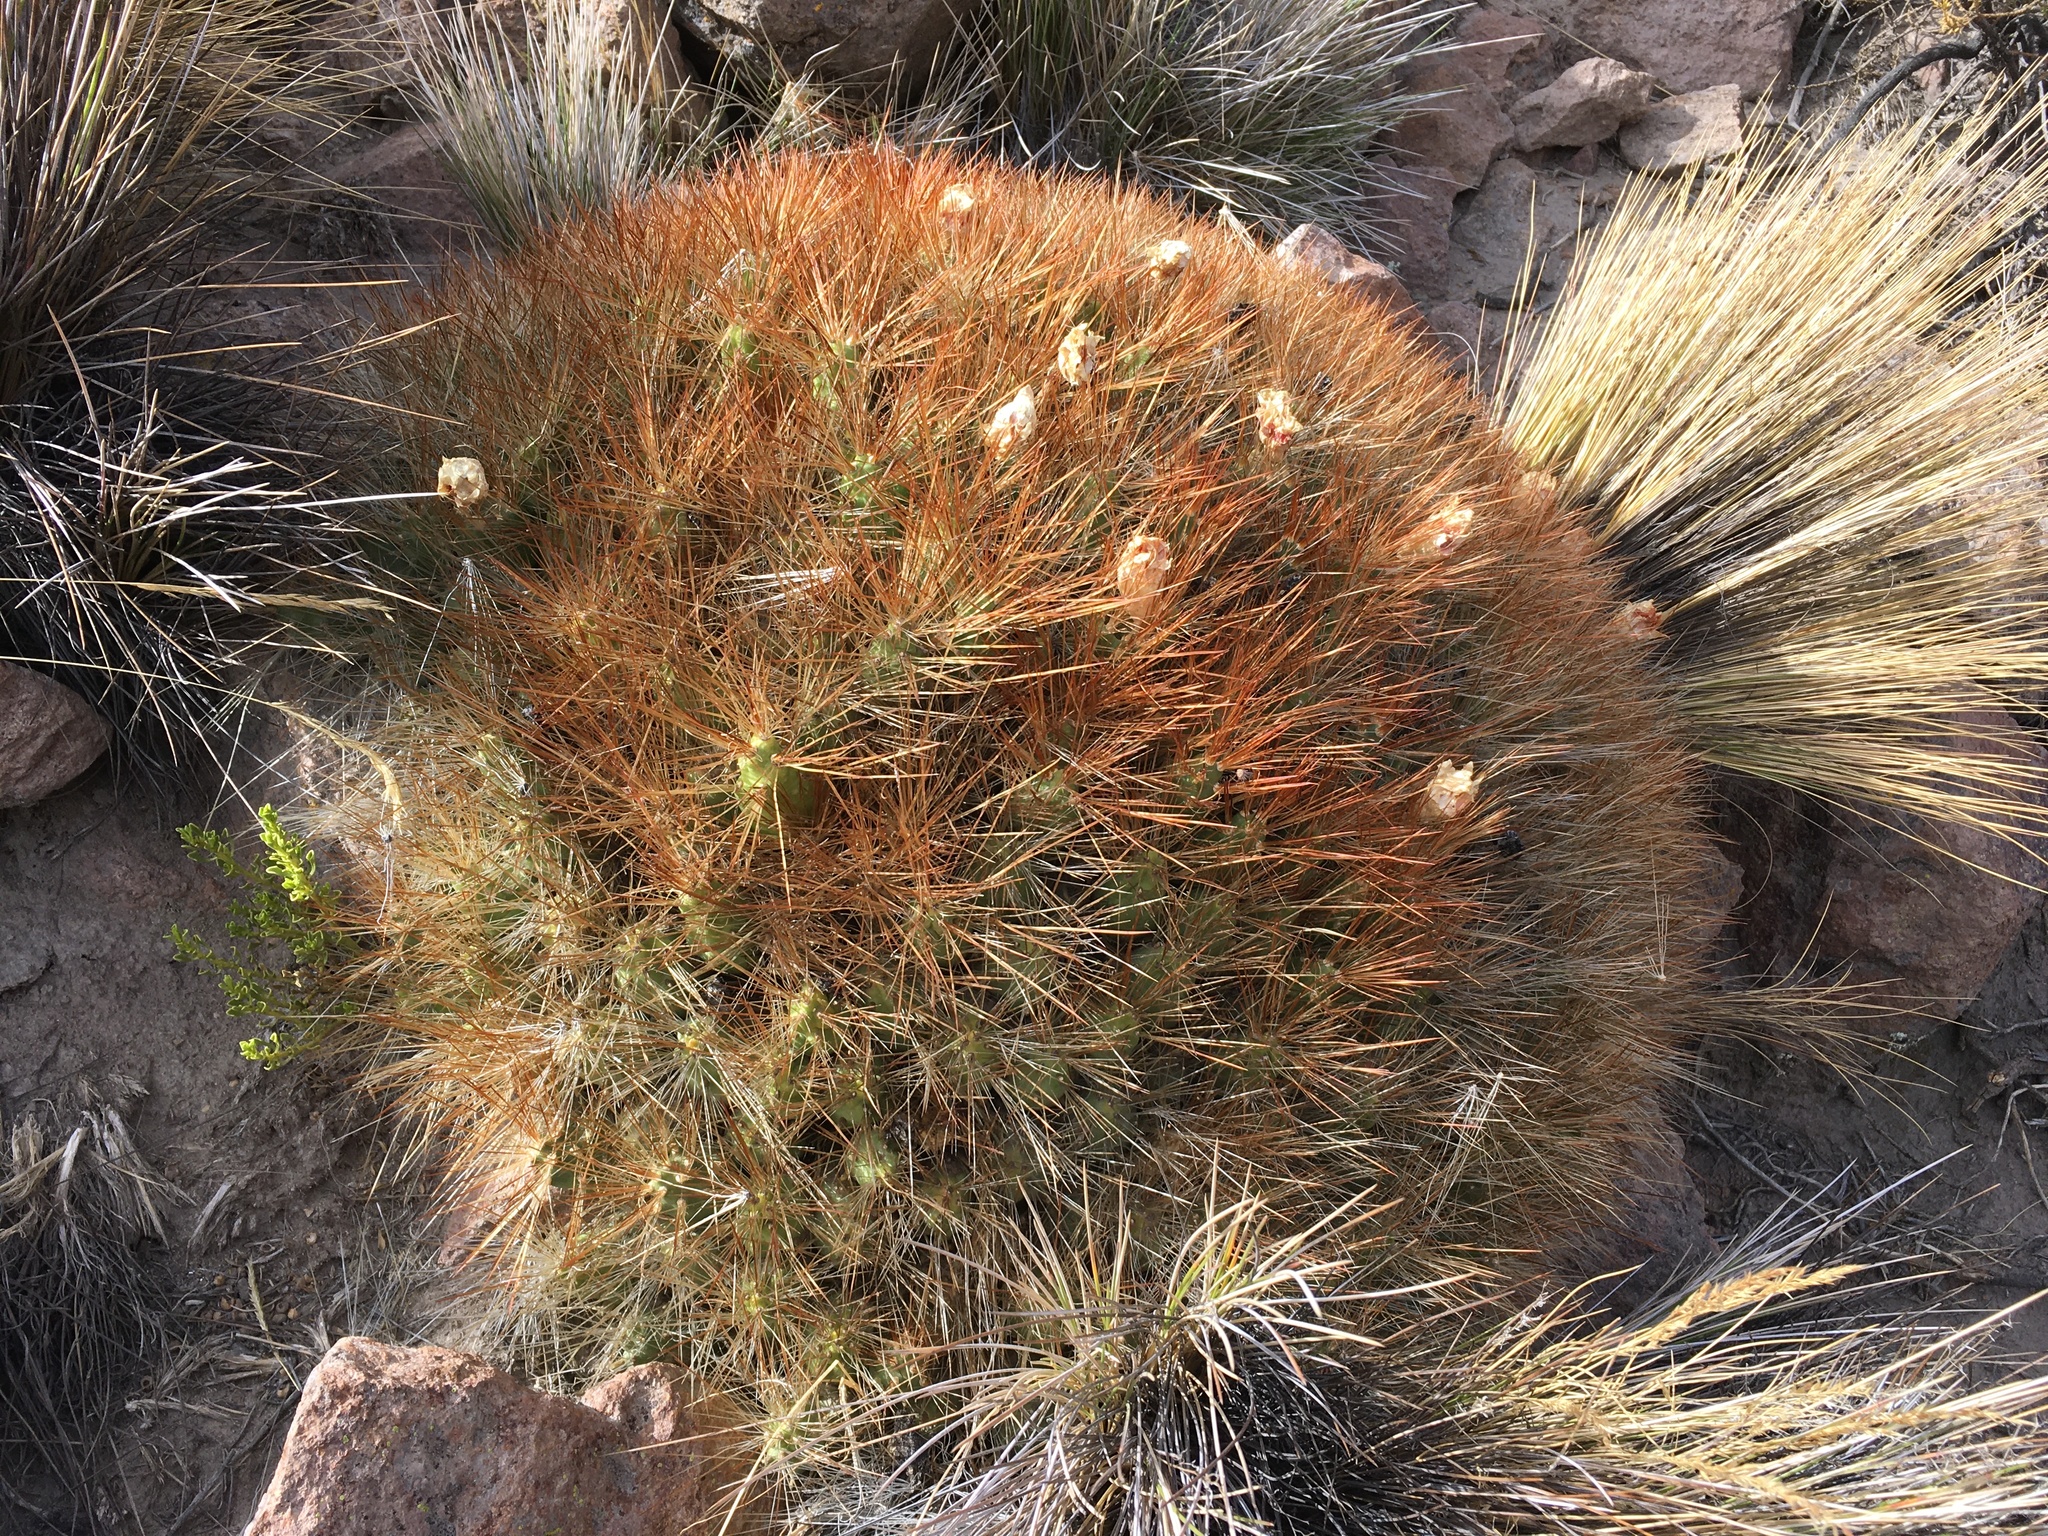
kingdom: Plantae
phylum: Tracheophyta
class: Magnoliopsida
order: Caryophyllales
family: Cactaceae
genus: Cumulopuntia
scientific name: Cumulopuntia glomerata
